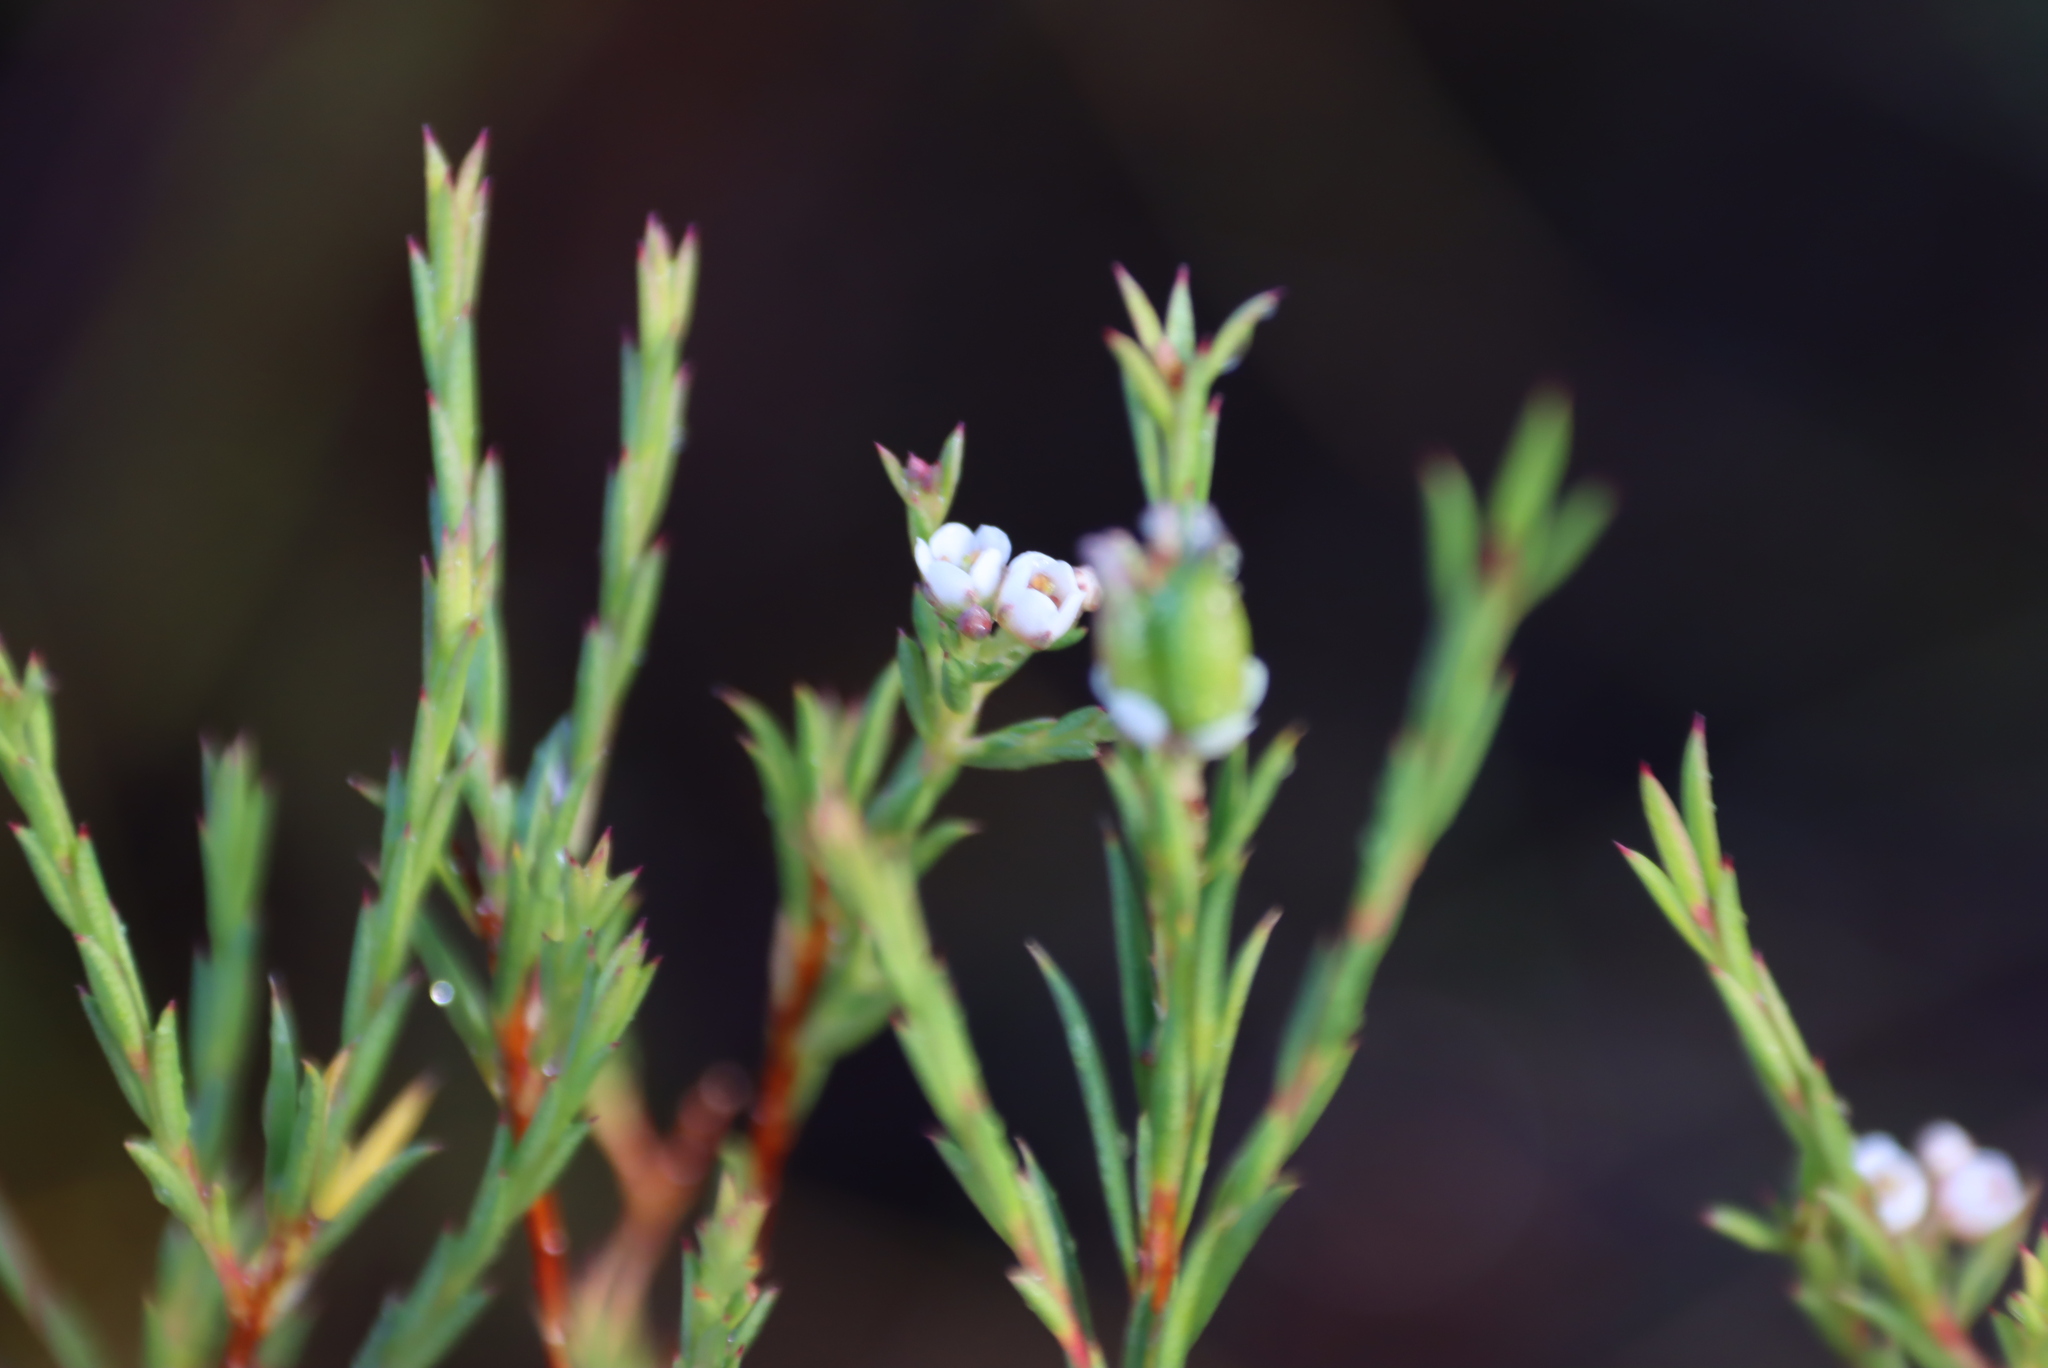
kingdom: Plantae
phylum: Tracheophyta
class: Magnoliopsida
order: Sapindales
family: Rutaceae
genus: Diosma
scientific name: Diosma hirsuta
